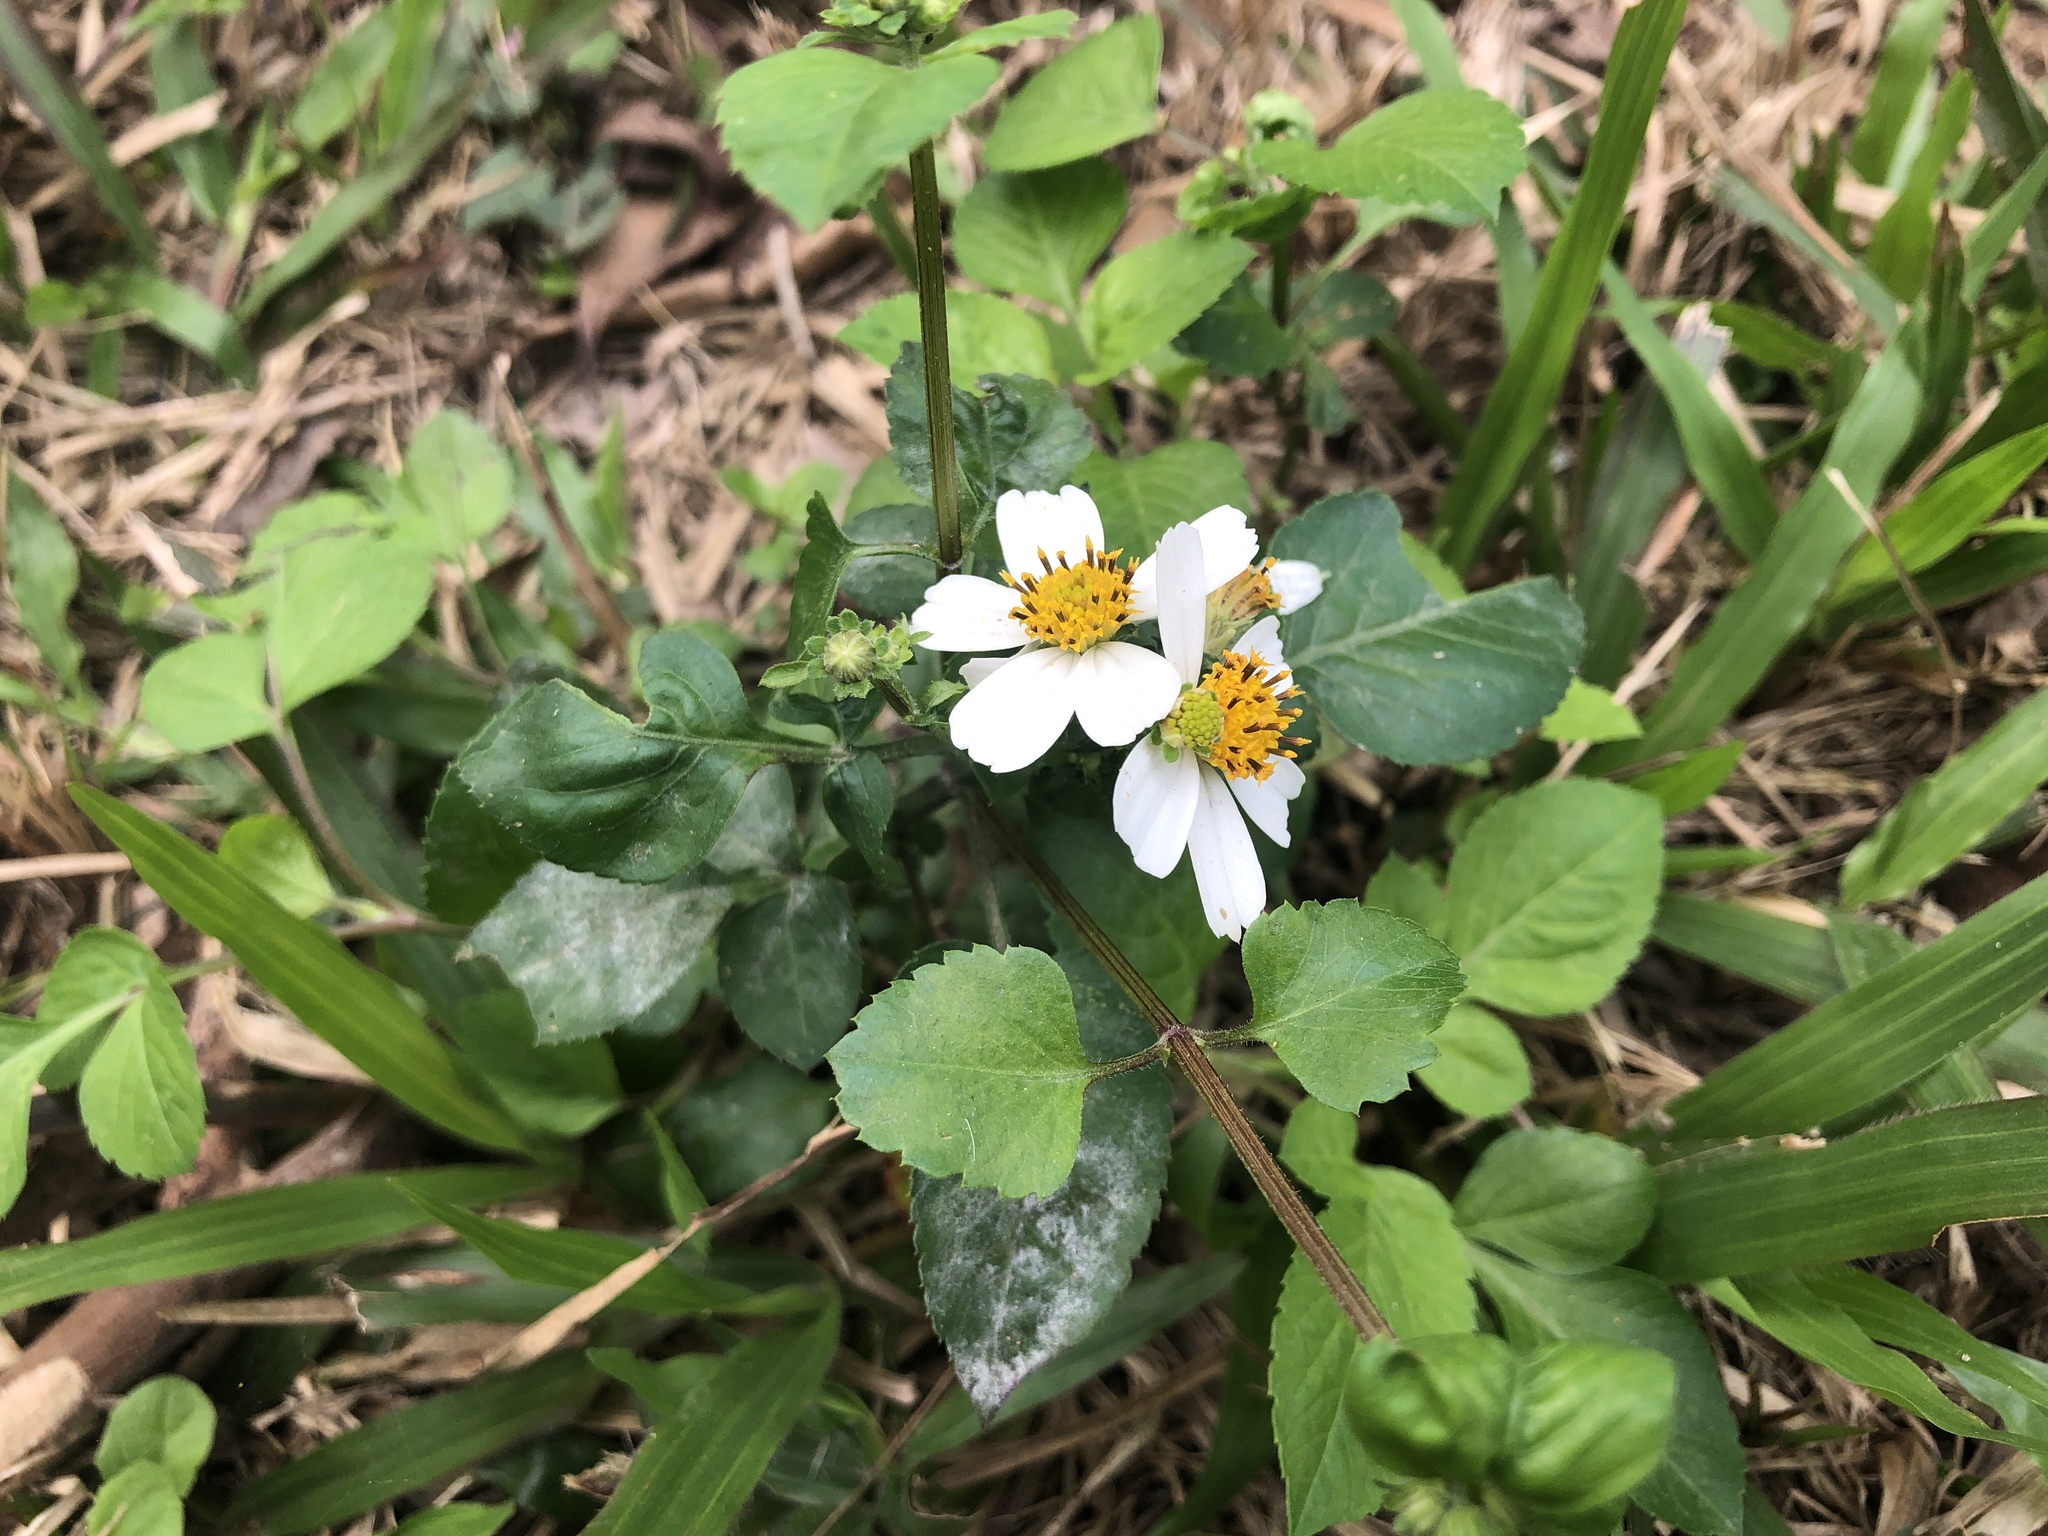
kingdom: Plantae
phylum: Tracheophyta
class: Magnoliopsida
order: Asterales
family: Asteraceae
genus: Bidens
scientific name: Bidens alba
